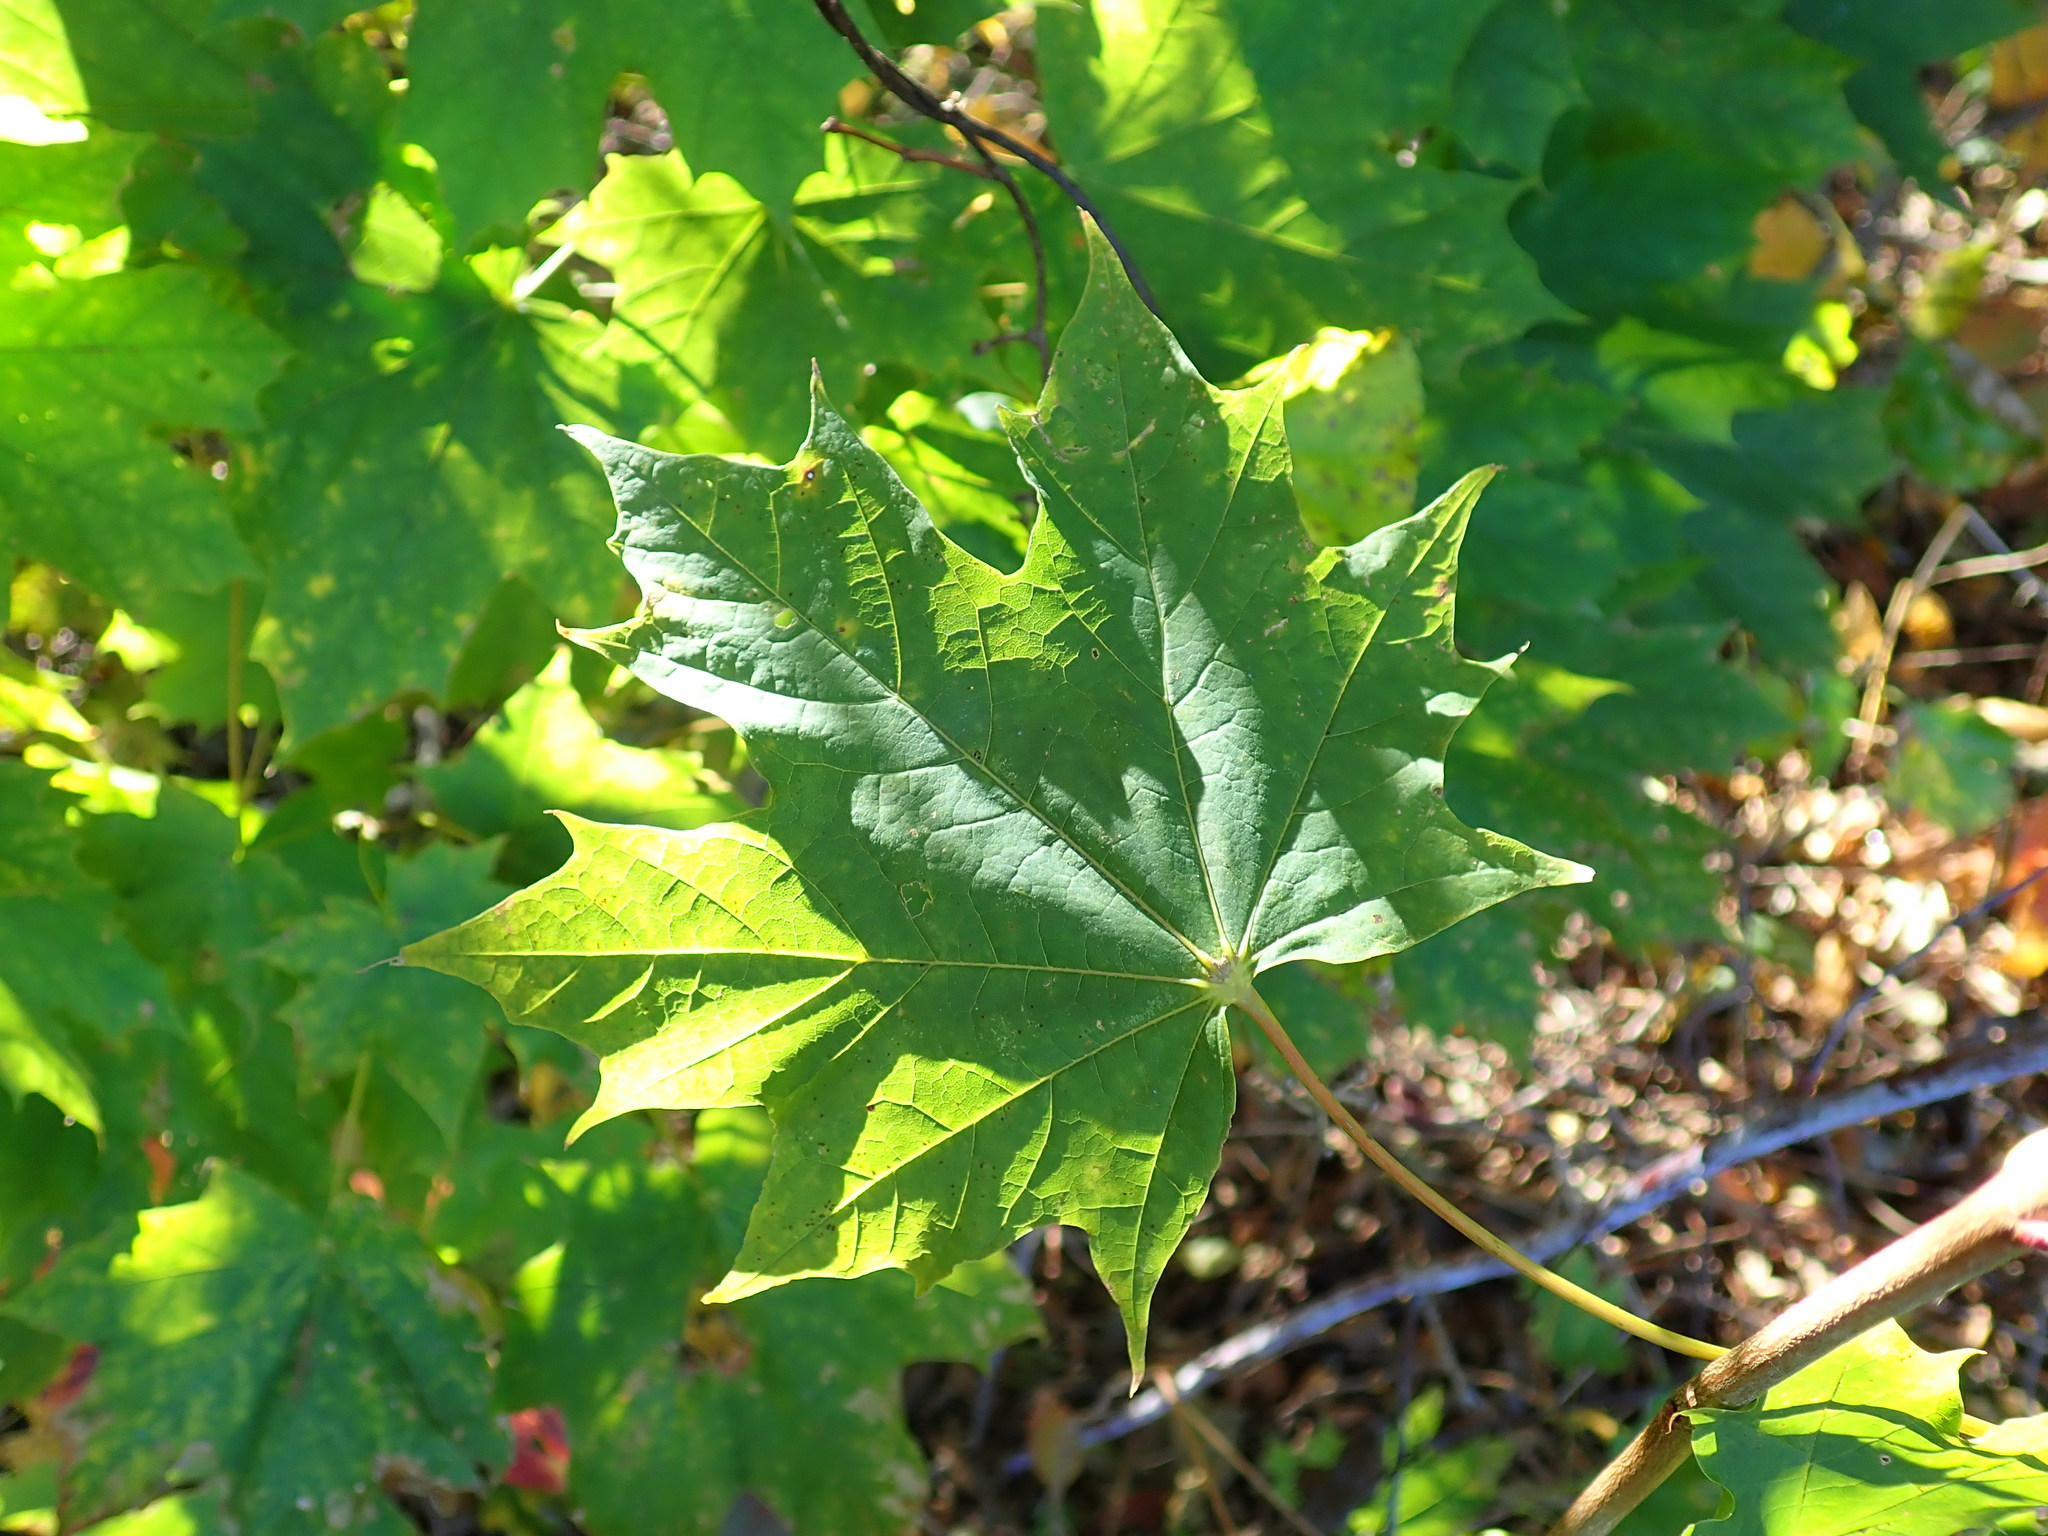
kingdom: Plantae
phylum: Tracheophyta
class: Magnoliopsida
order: Sapindales
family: Sapindaceae
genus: Acer
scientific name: Acer platanoides
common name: Norway maple
